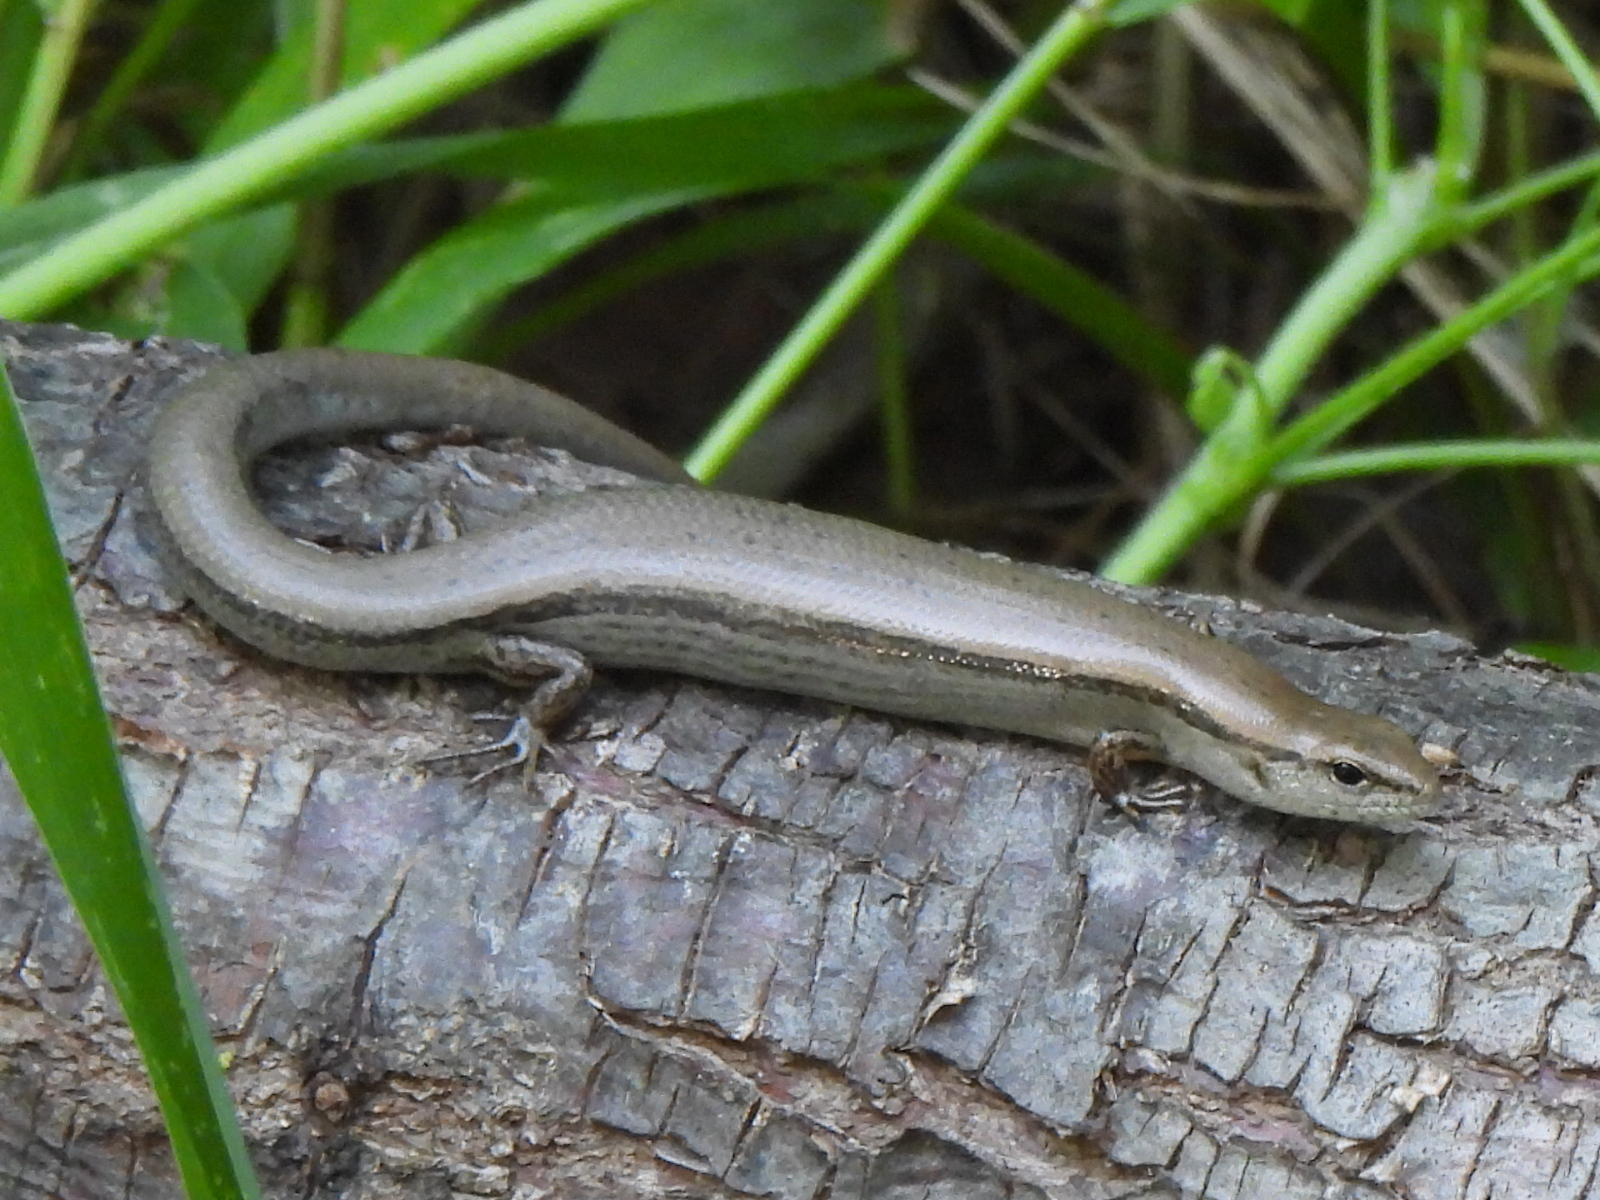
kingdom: Animalia
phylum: Chordata
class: Squamata
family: Scincidae
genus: Scincella
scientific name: Scincella lateralis
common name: Ground skink
